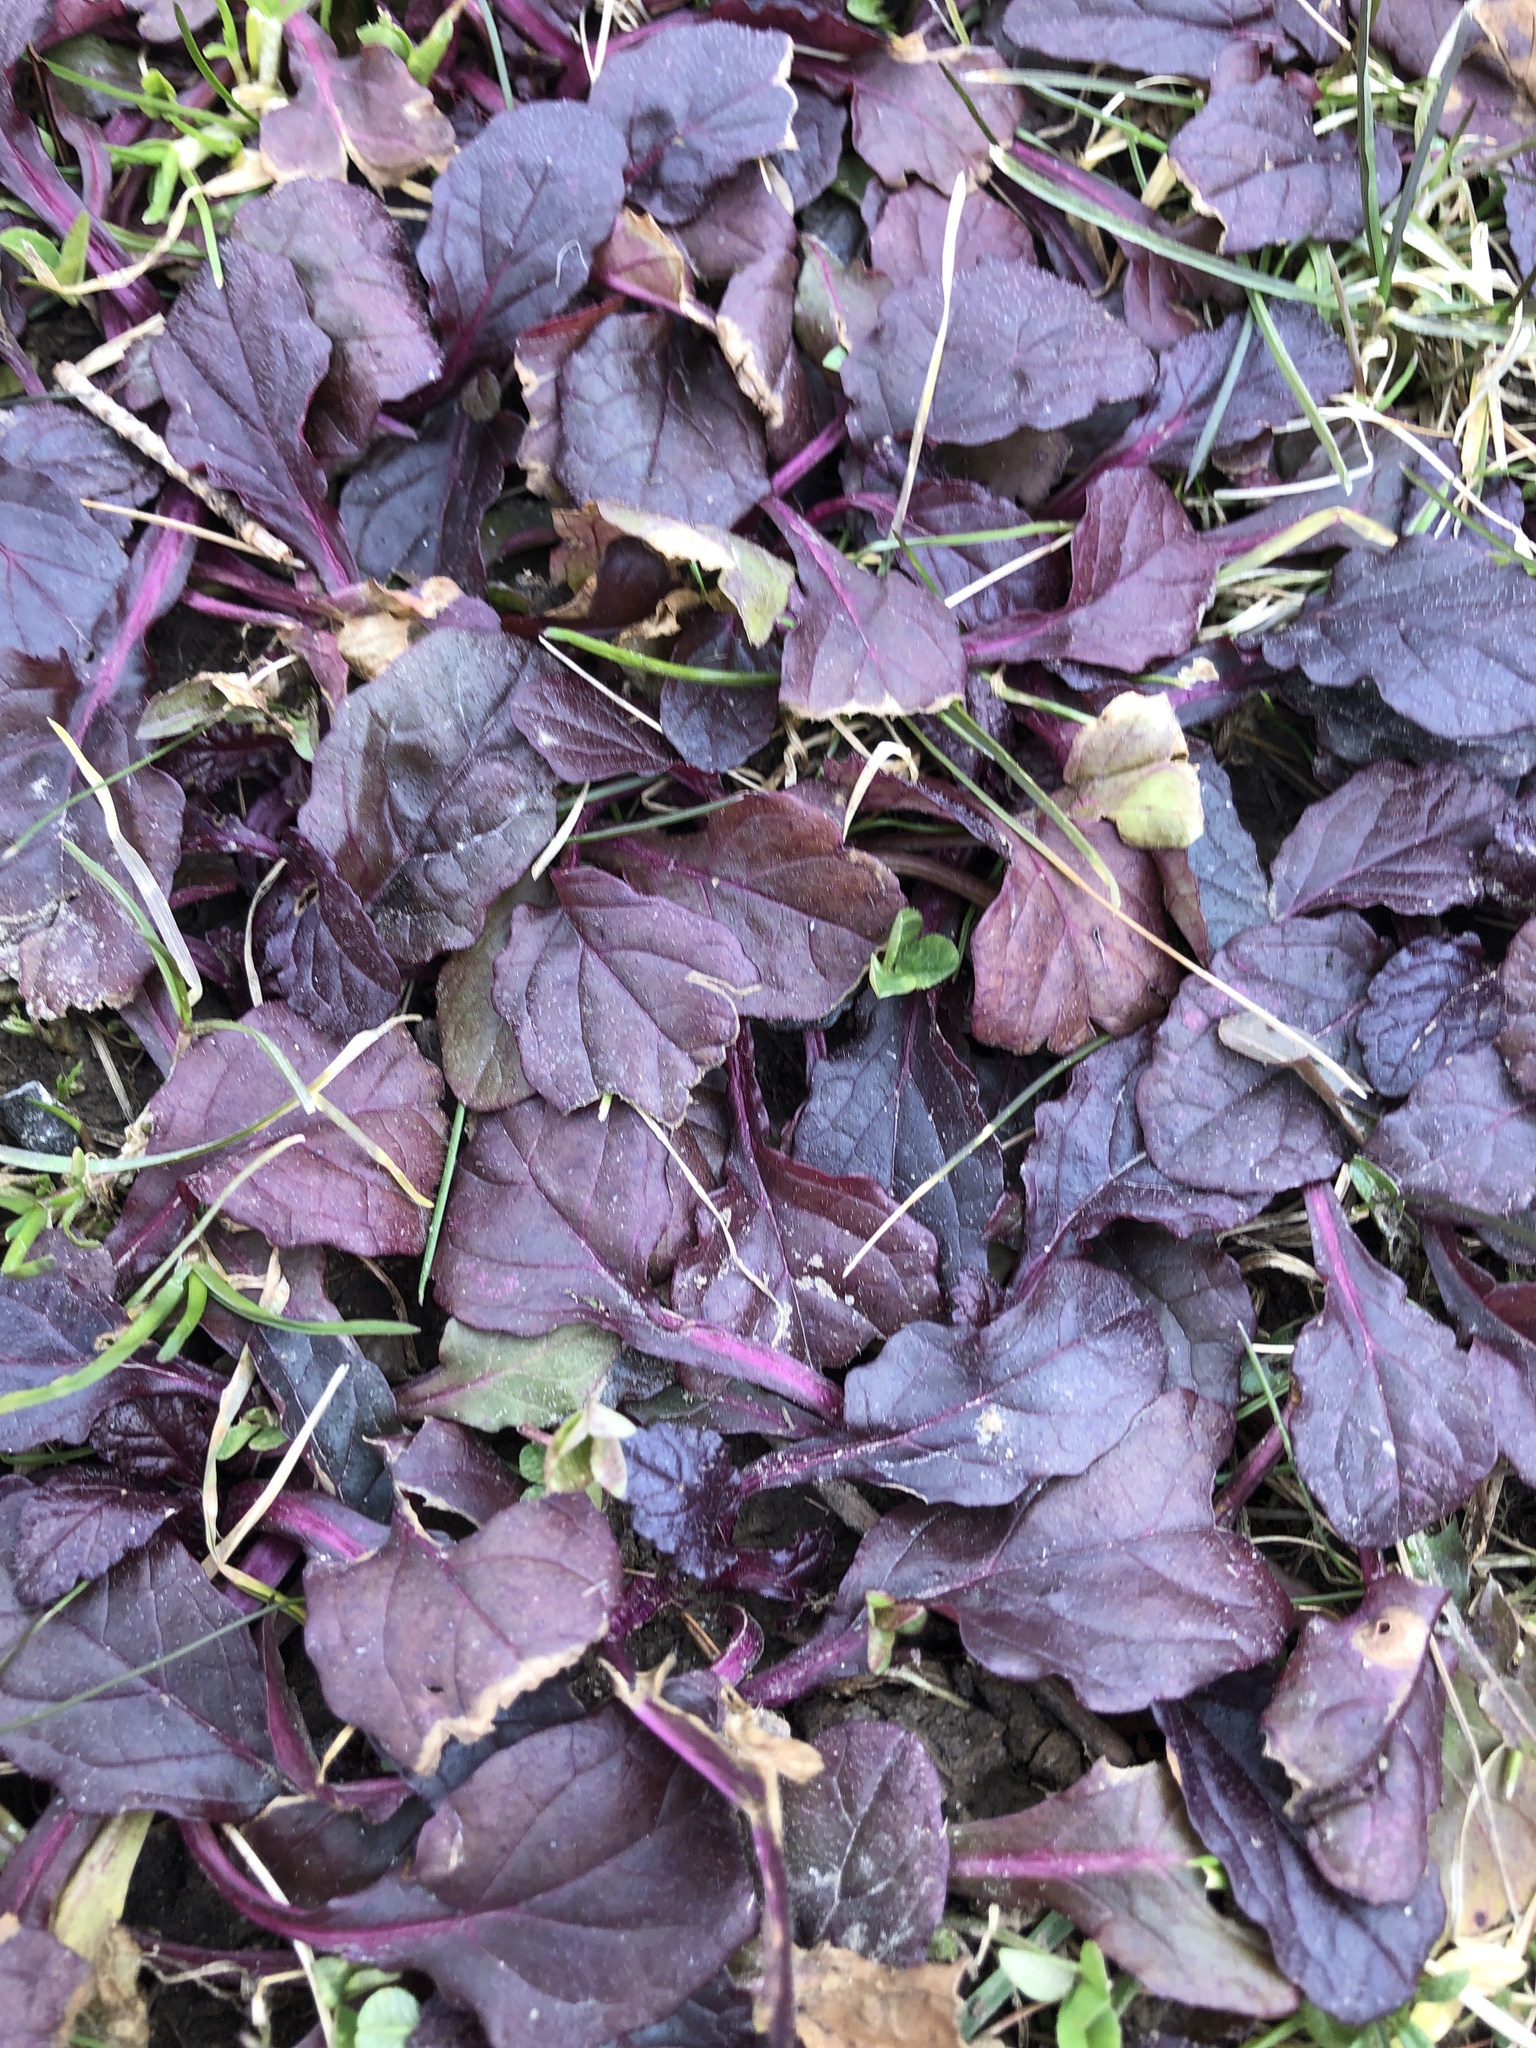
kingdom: Plantae
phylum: Tracheophyta
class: Magnoliopsida
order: Lamiales
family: Lamiaceae
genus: Ajuga
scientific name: Ajuga reptans
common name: Bugle
